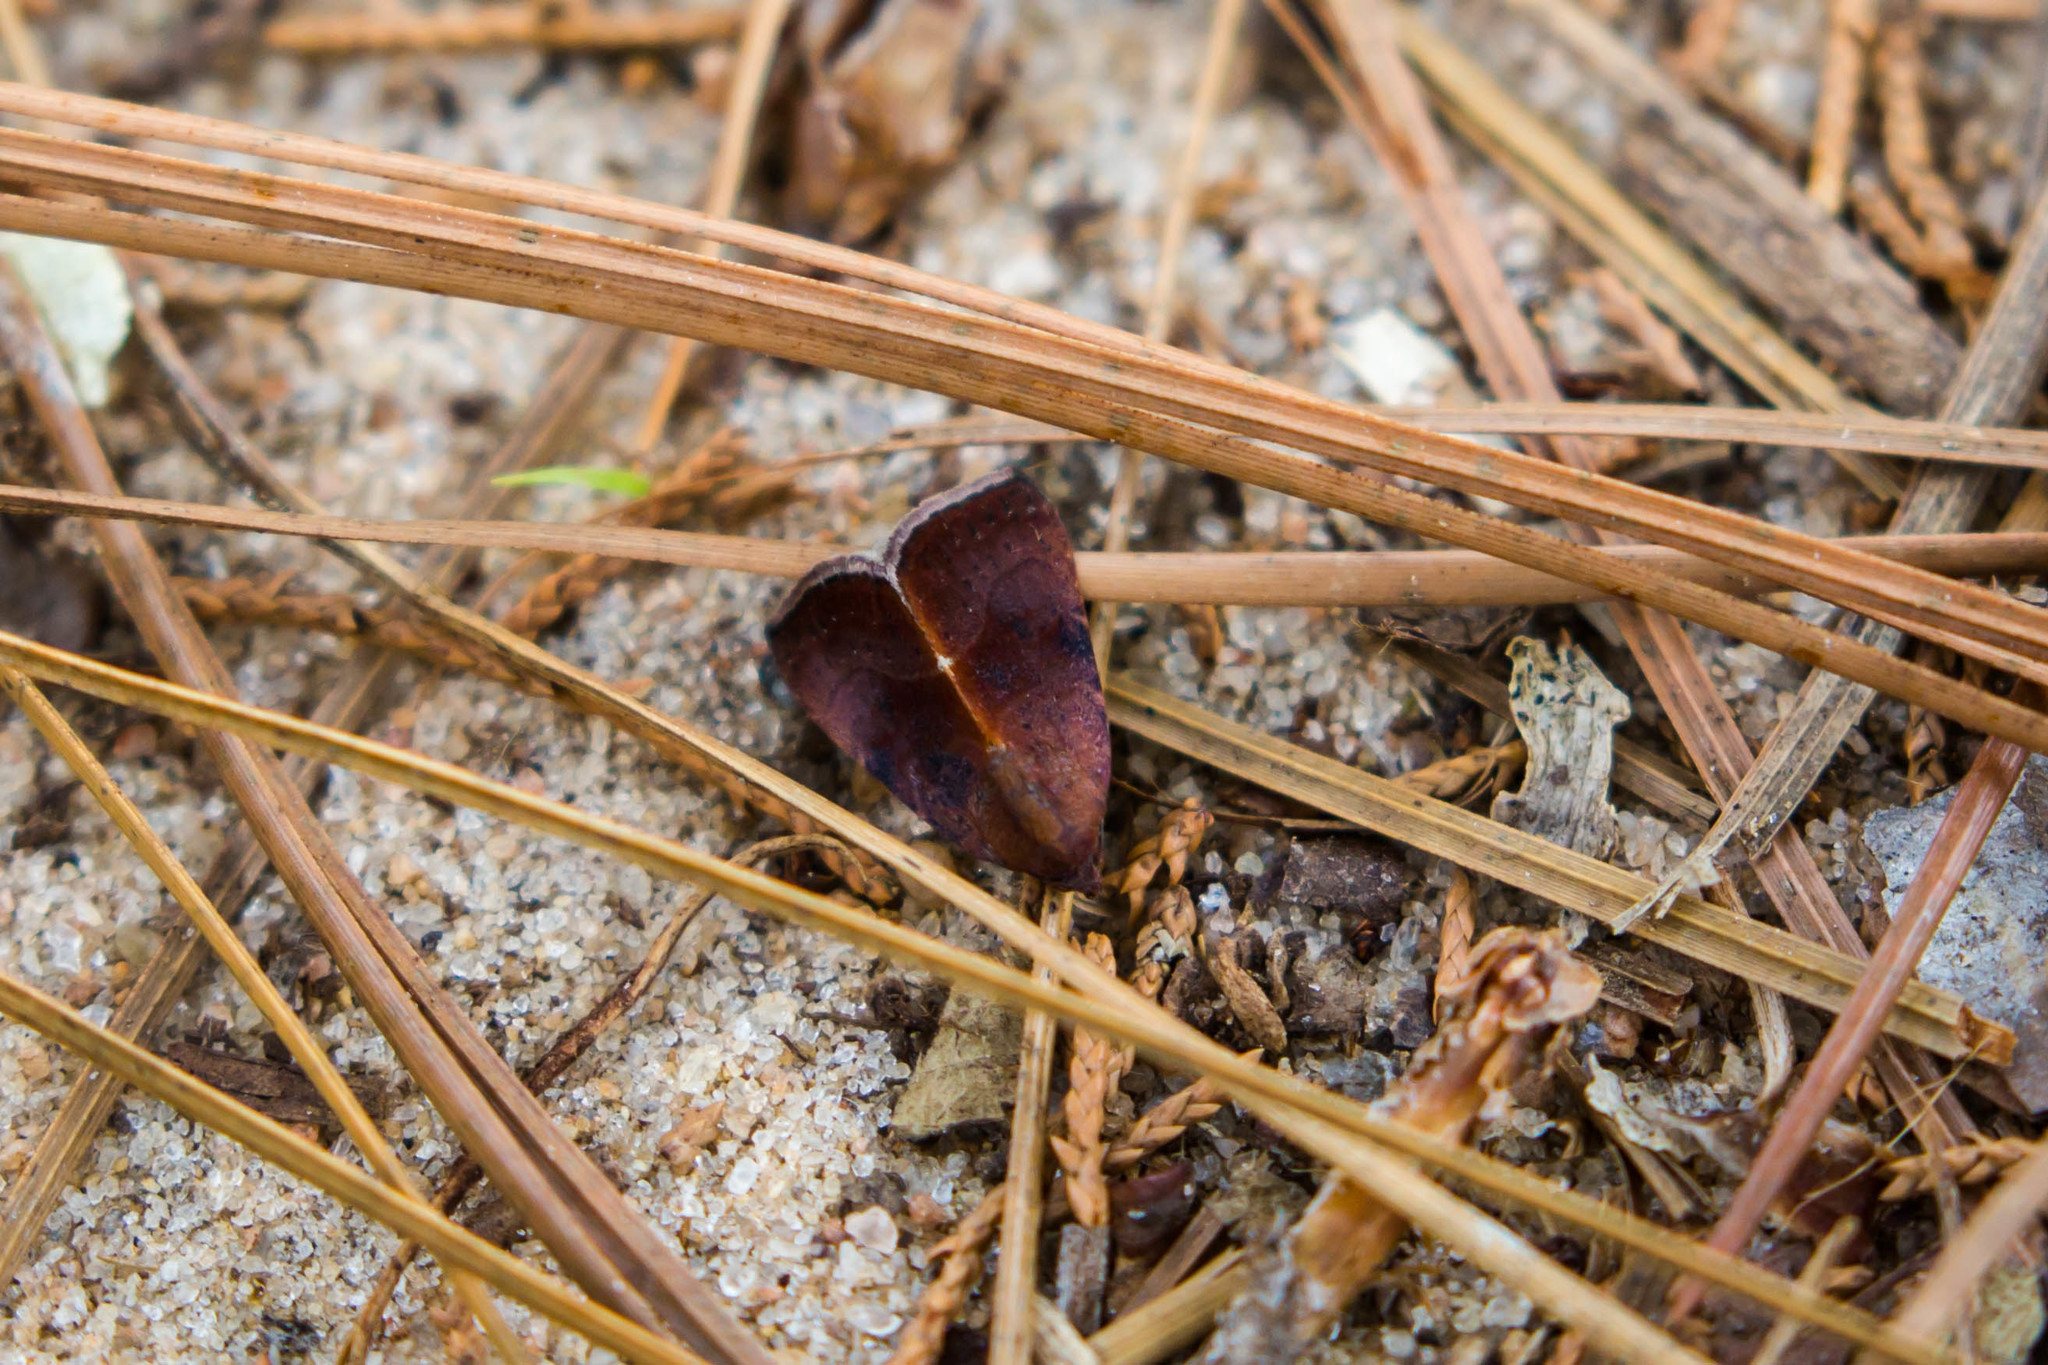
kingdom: Animalia
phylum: Arthropoda
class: Insecta
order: Lepidoptera
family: Noctuidae
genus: Galgula
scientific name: Galgula partita
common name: Wedgeling
